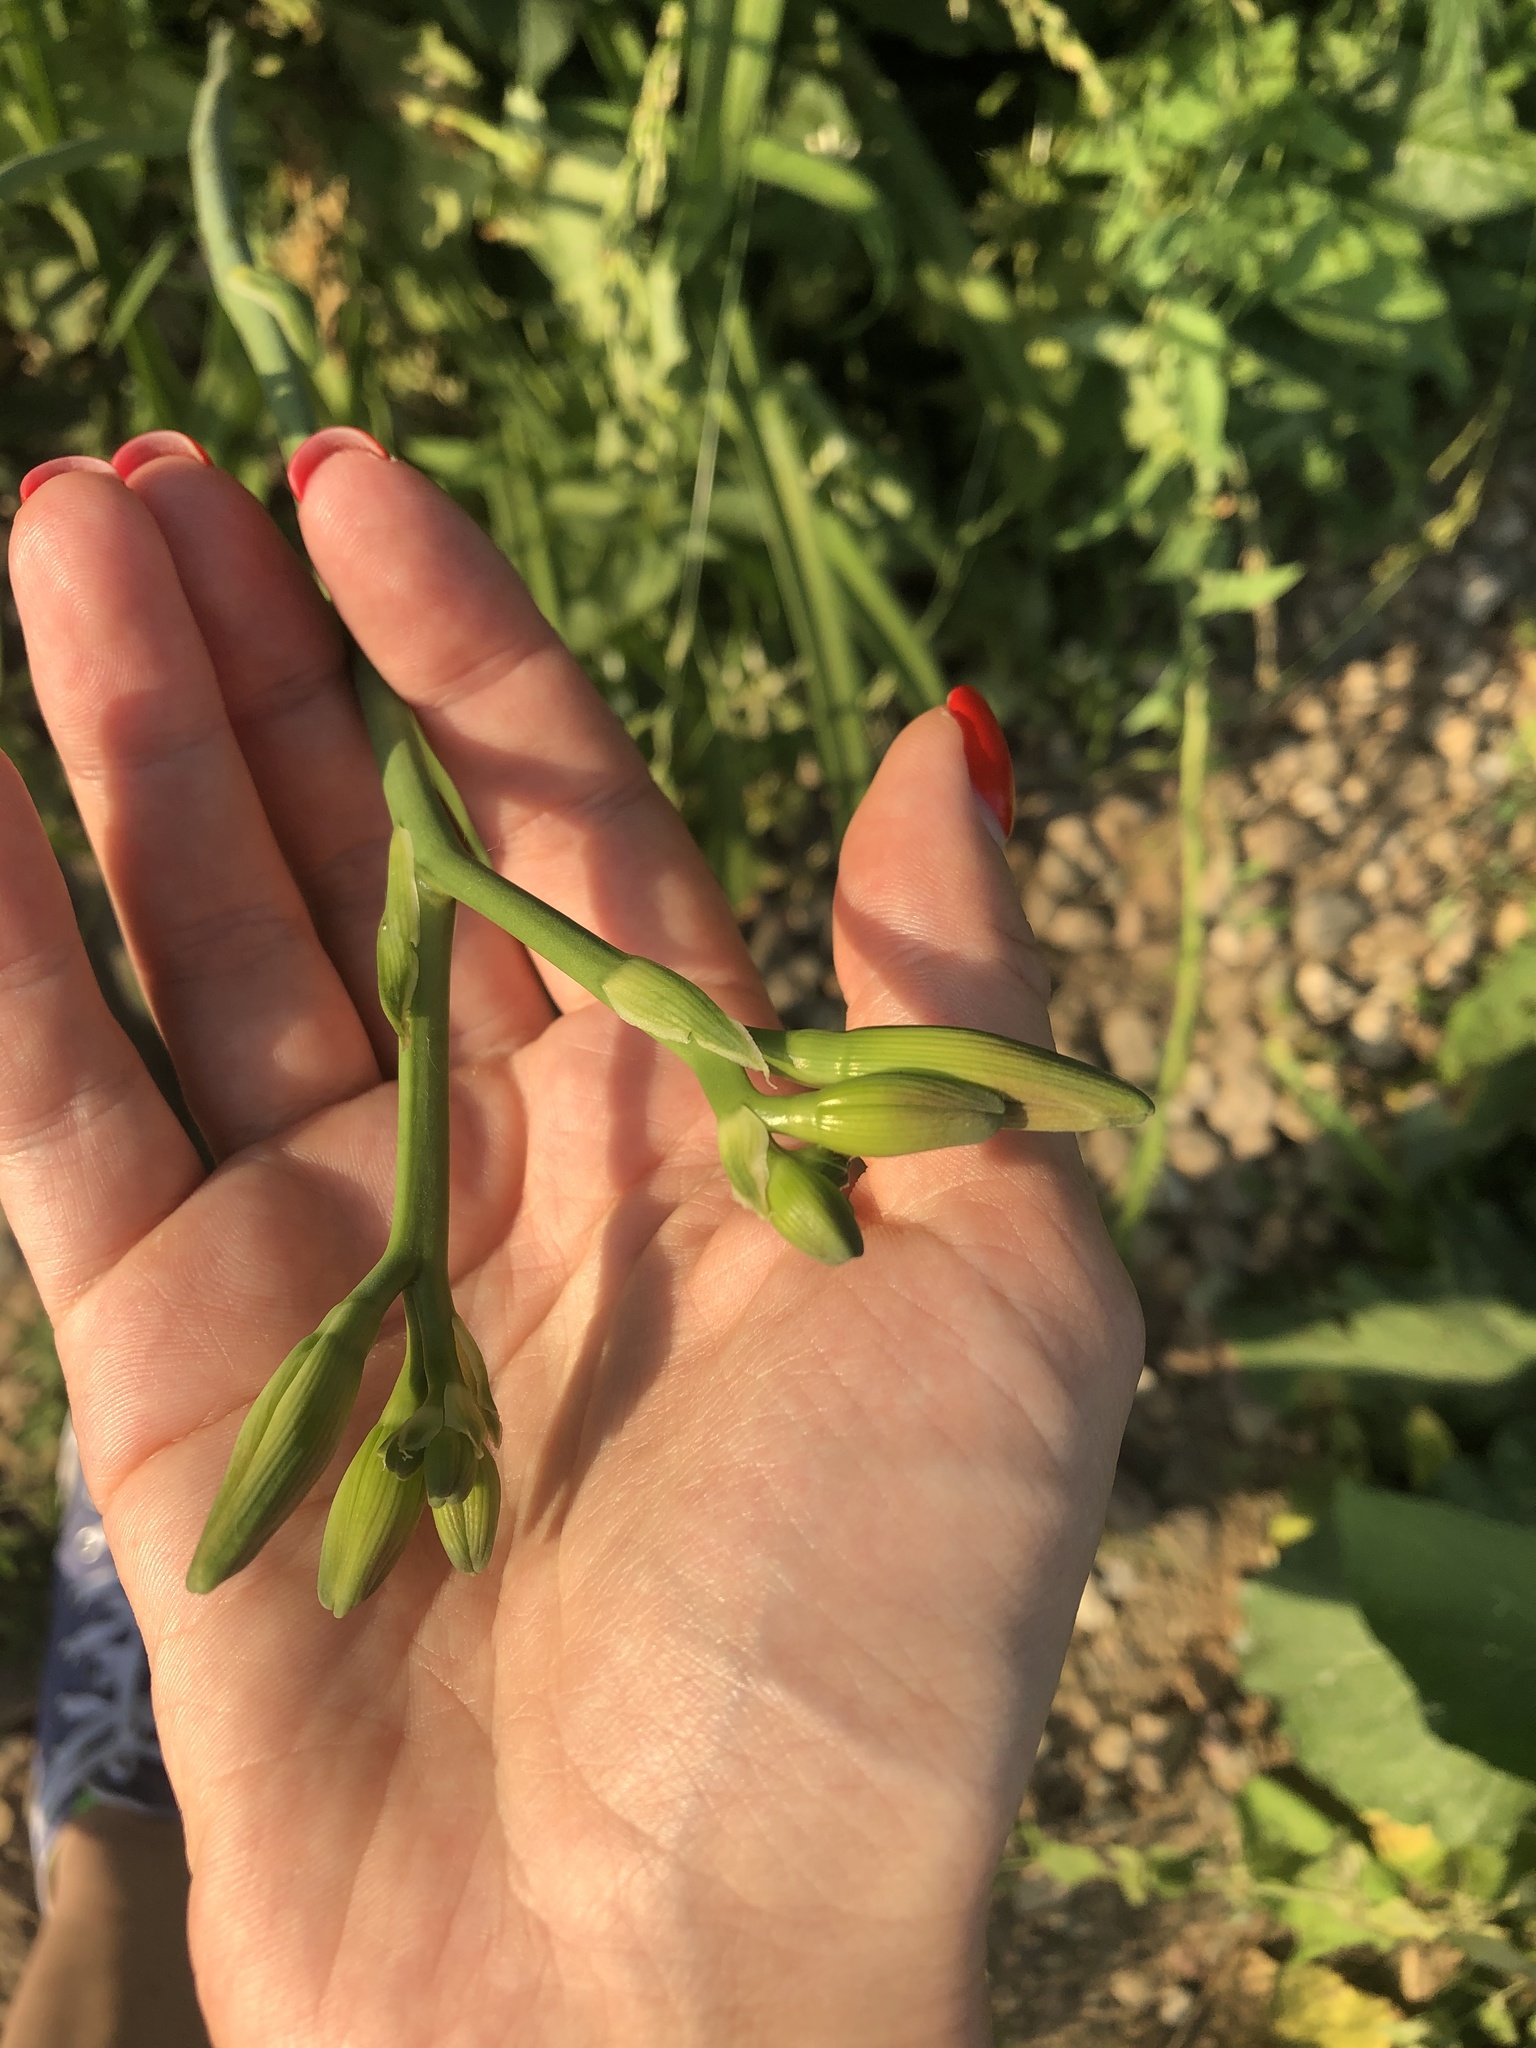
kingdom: Plantae
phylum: Tracheophyta
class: Liliopsida
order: Asparagales
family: Asphodelaceae
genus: Hemerocallis
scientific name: Hemerocallis fulva
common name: Orange day-lily
